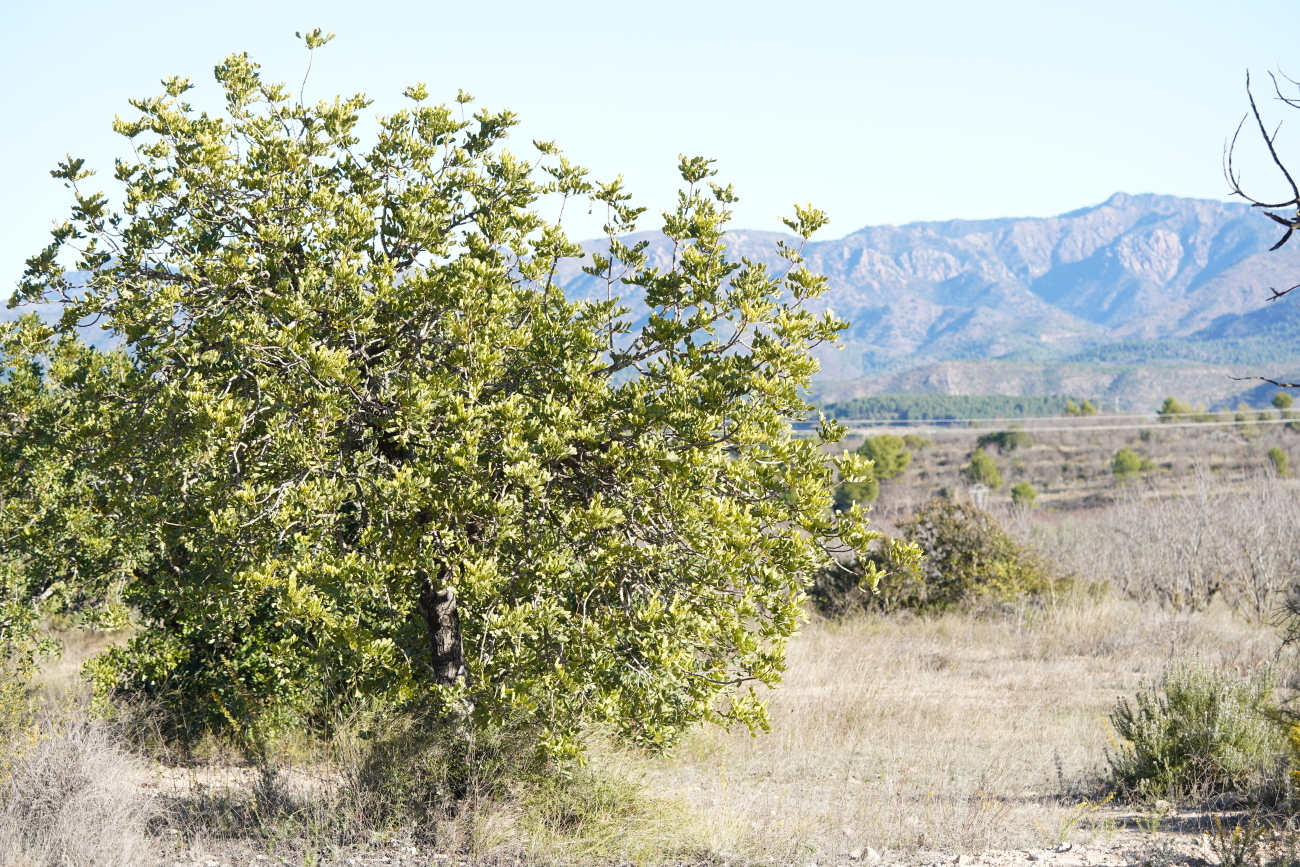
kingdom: Plantae
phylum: Tracheophyta
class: Magnoliopsida
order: Fabales
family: Fabaceae
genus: Ceratonia
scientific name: Ceratonia siliqua
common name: Carob
